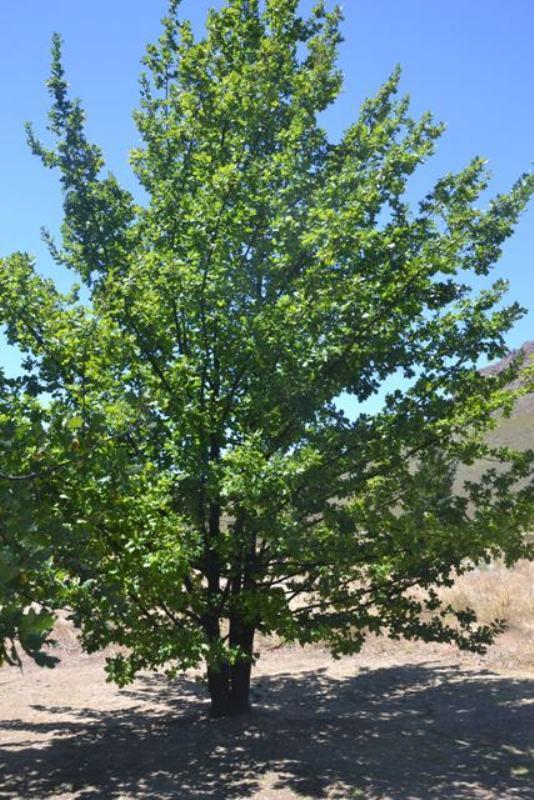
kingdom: Plantae
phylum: Tracheophyta
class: Magnoliopsida
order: Fagales
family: Fagaceae
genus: Quercus
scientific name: Quercus robur
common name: Pedunculate oak
